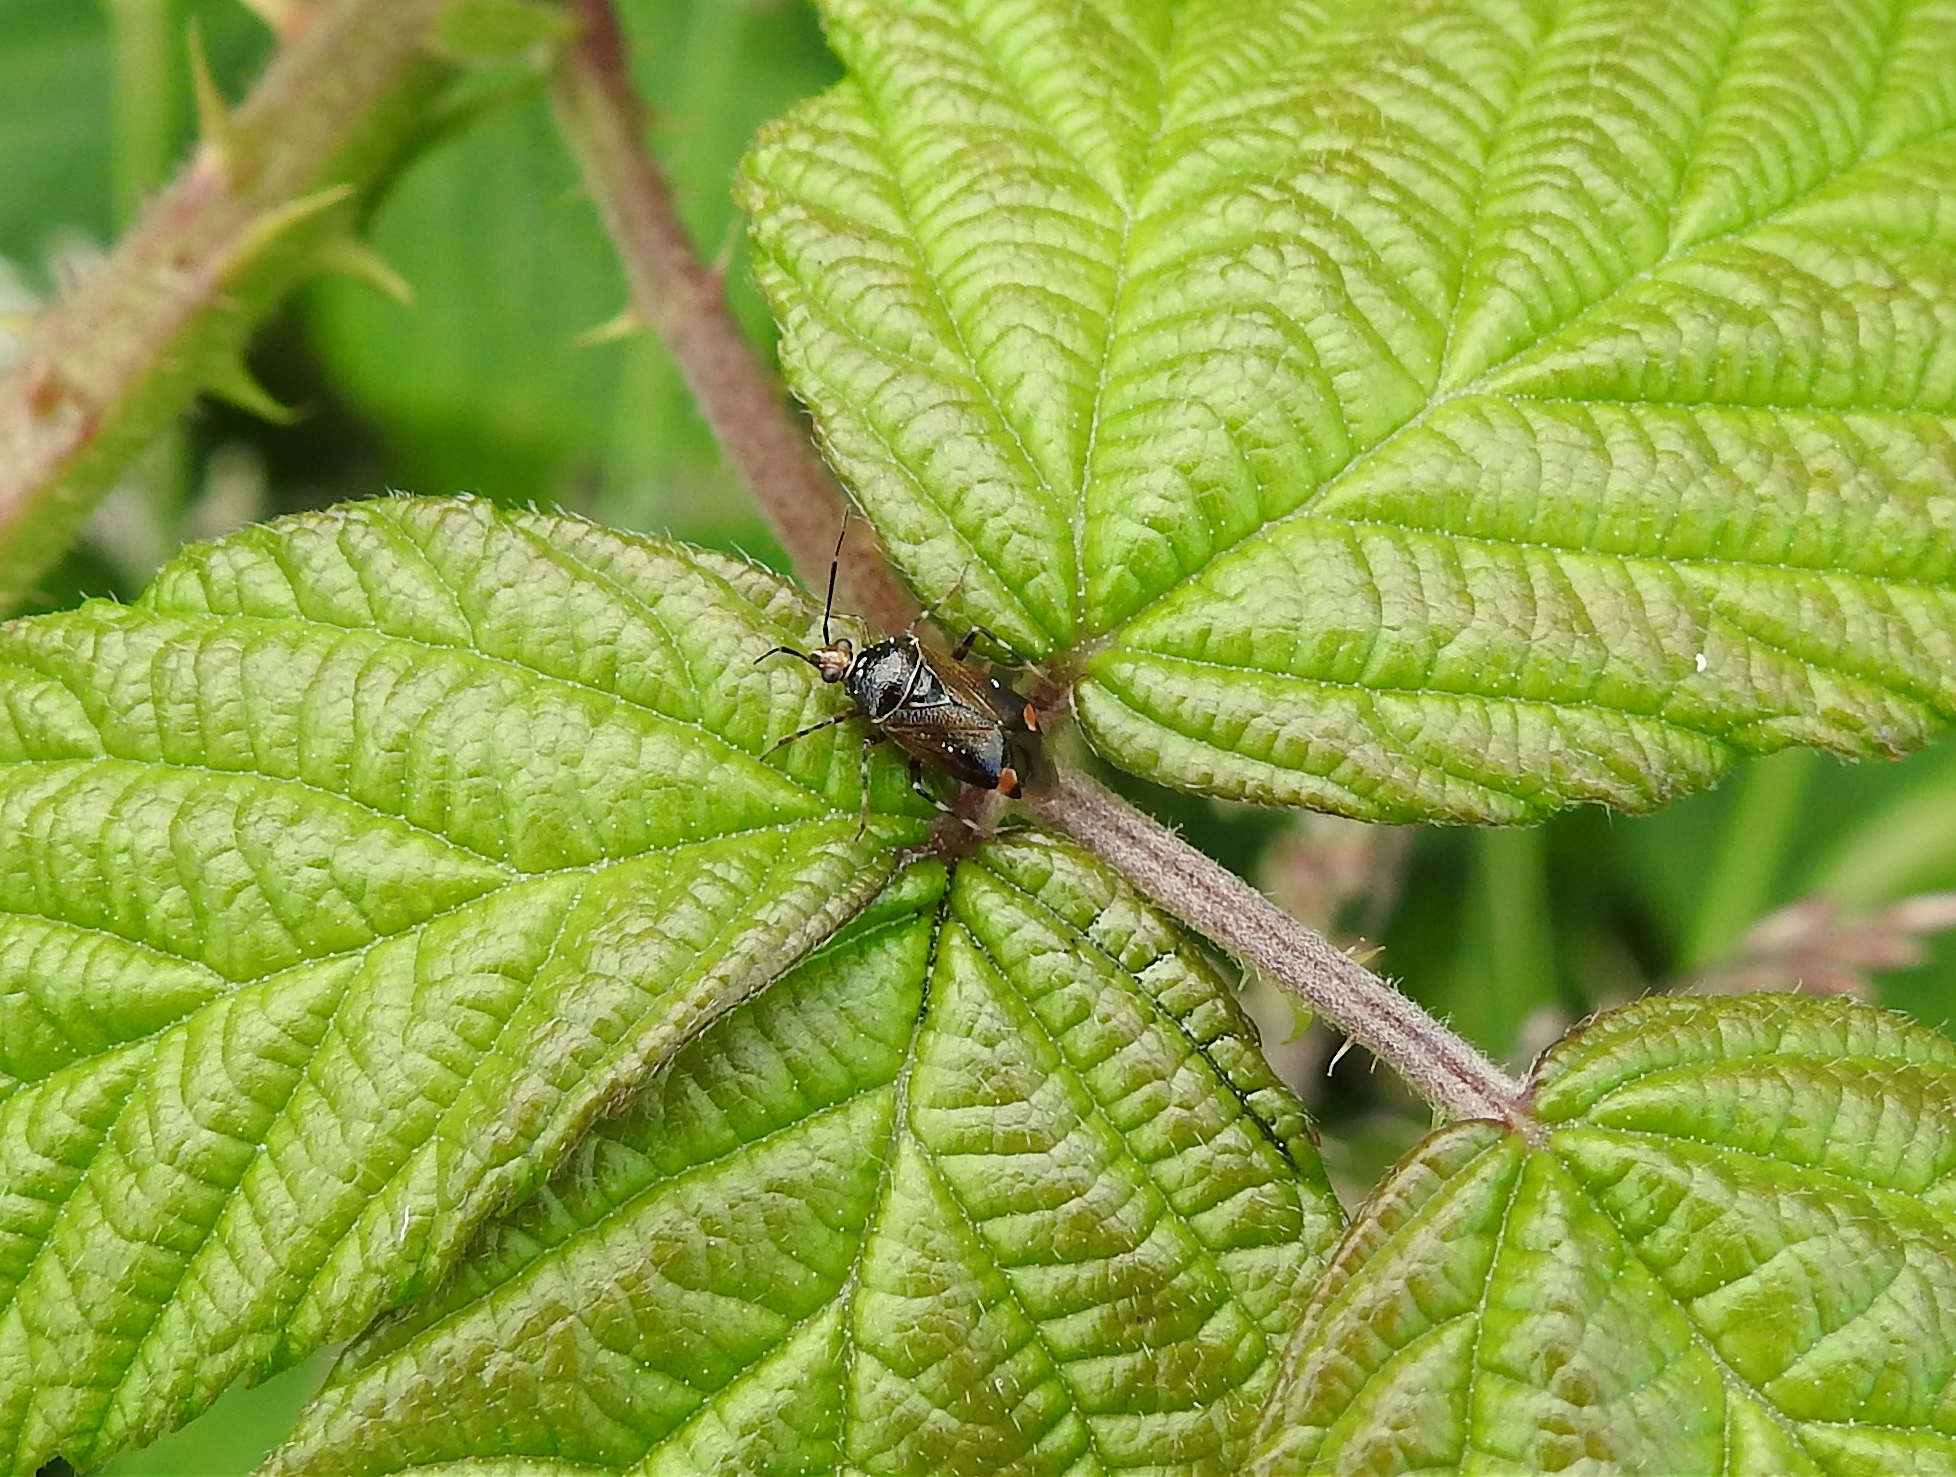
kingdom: Animalia
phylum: Arthropoda
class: Insecta
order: Hemiptera
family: Miridae
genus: Deraeocoris
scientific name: Deraeocoris flavilinea
